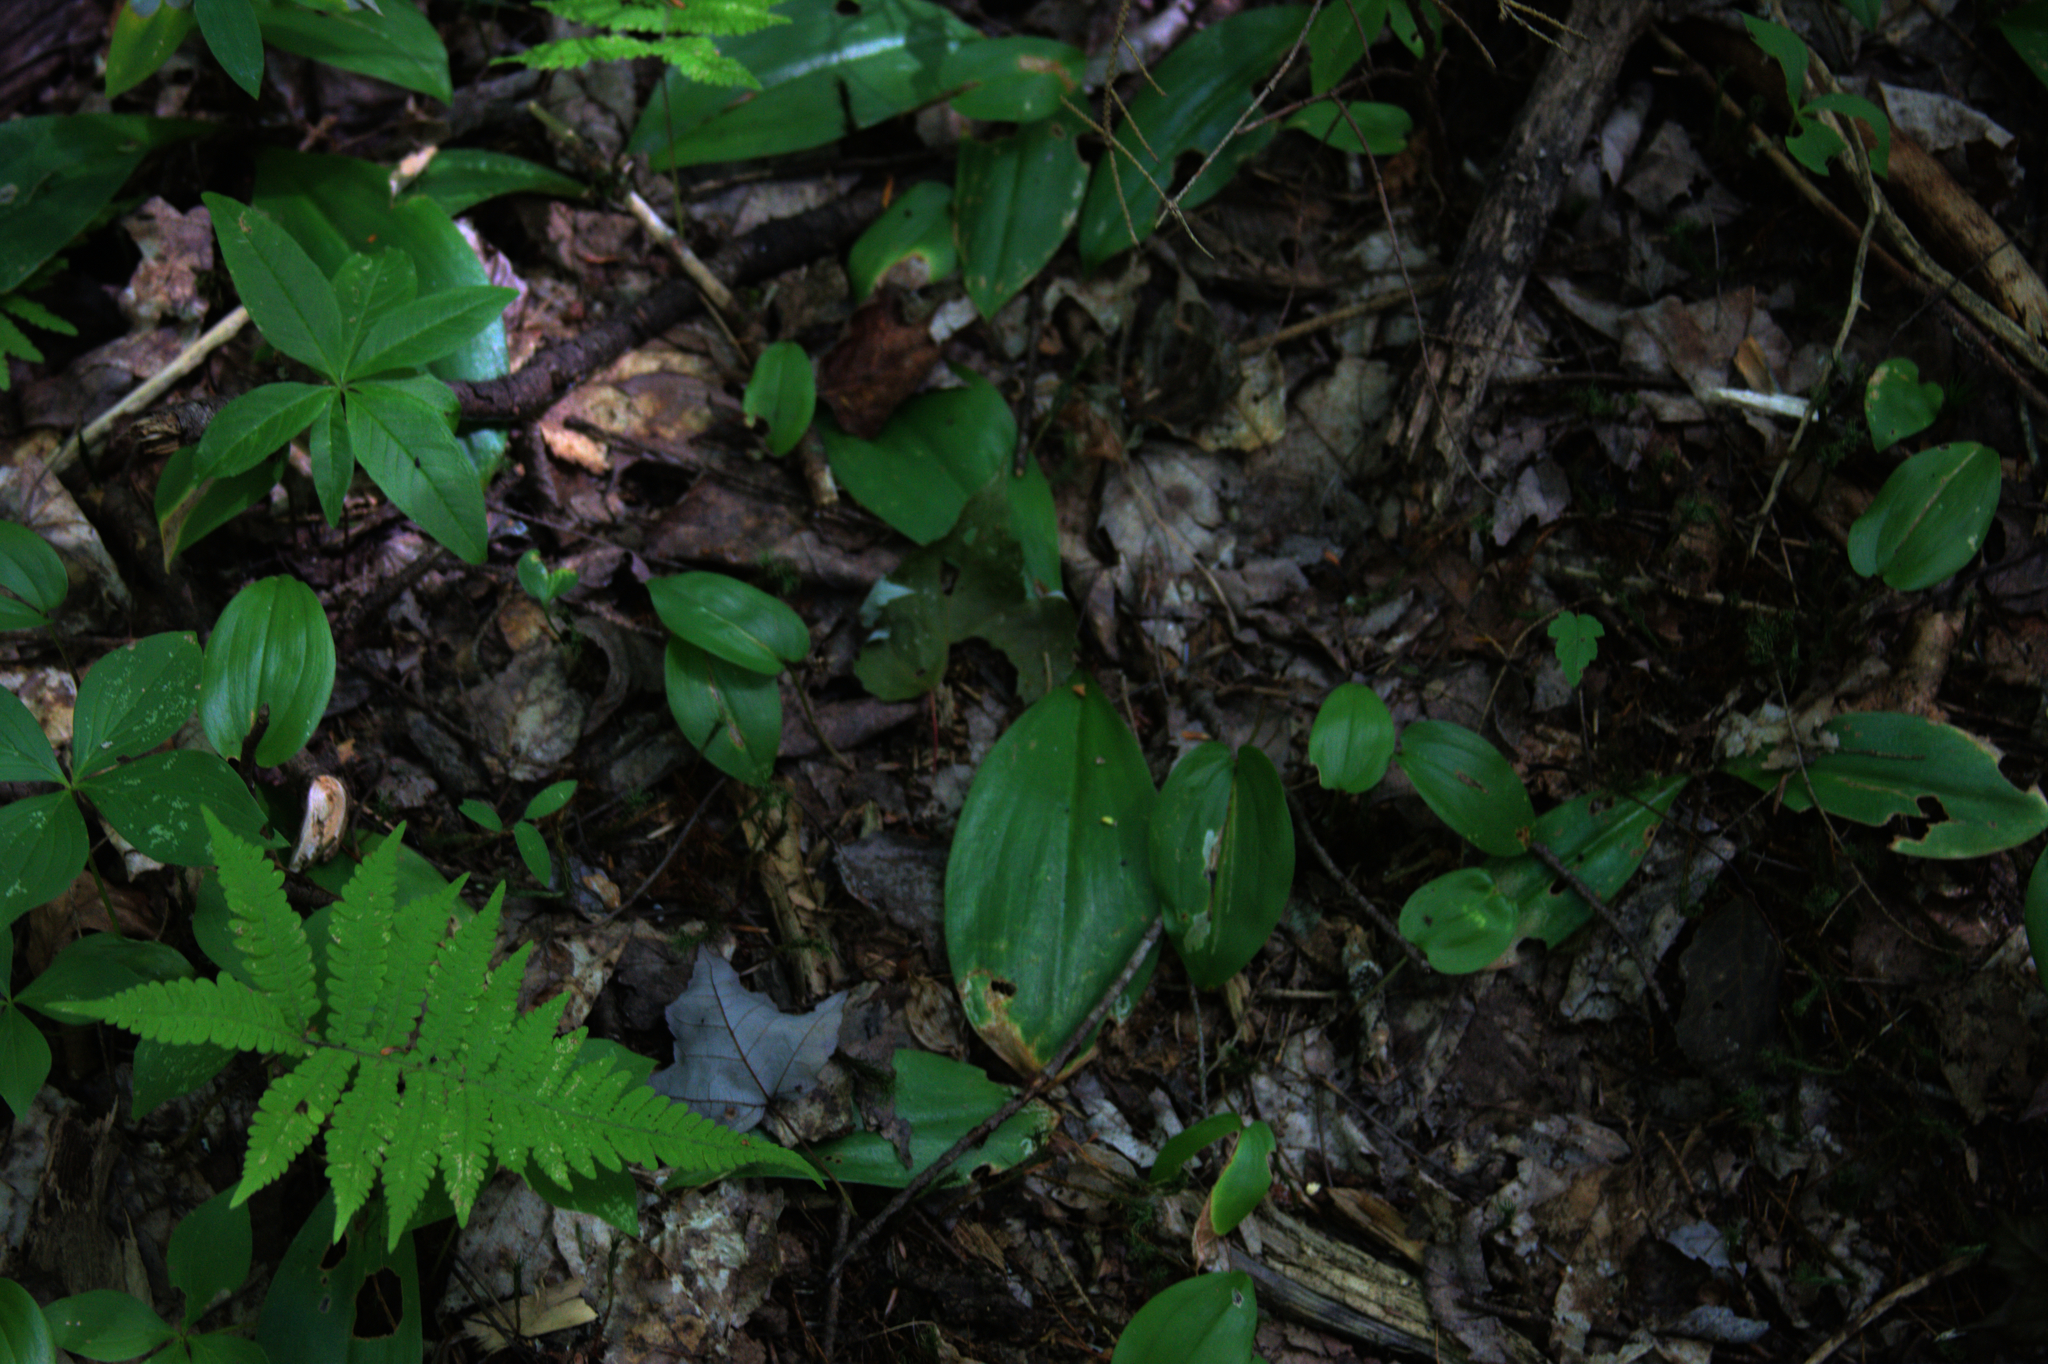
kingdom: Plantae
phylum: Tracheophyta
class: Liliopsida
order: Asparagales
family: Asparagaceae
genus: Maianthemum
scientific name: Maianthemum canadense
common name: False lily-of-the-valley
